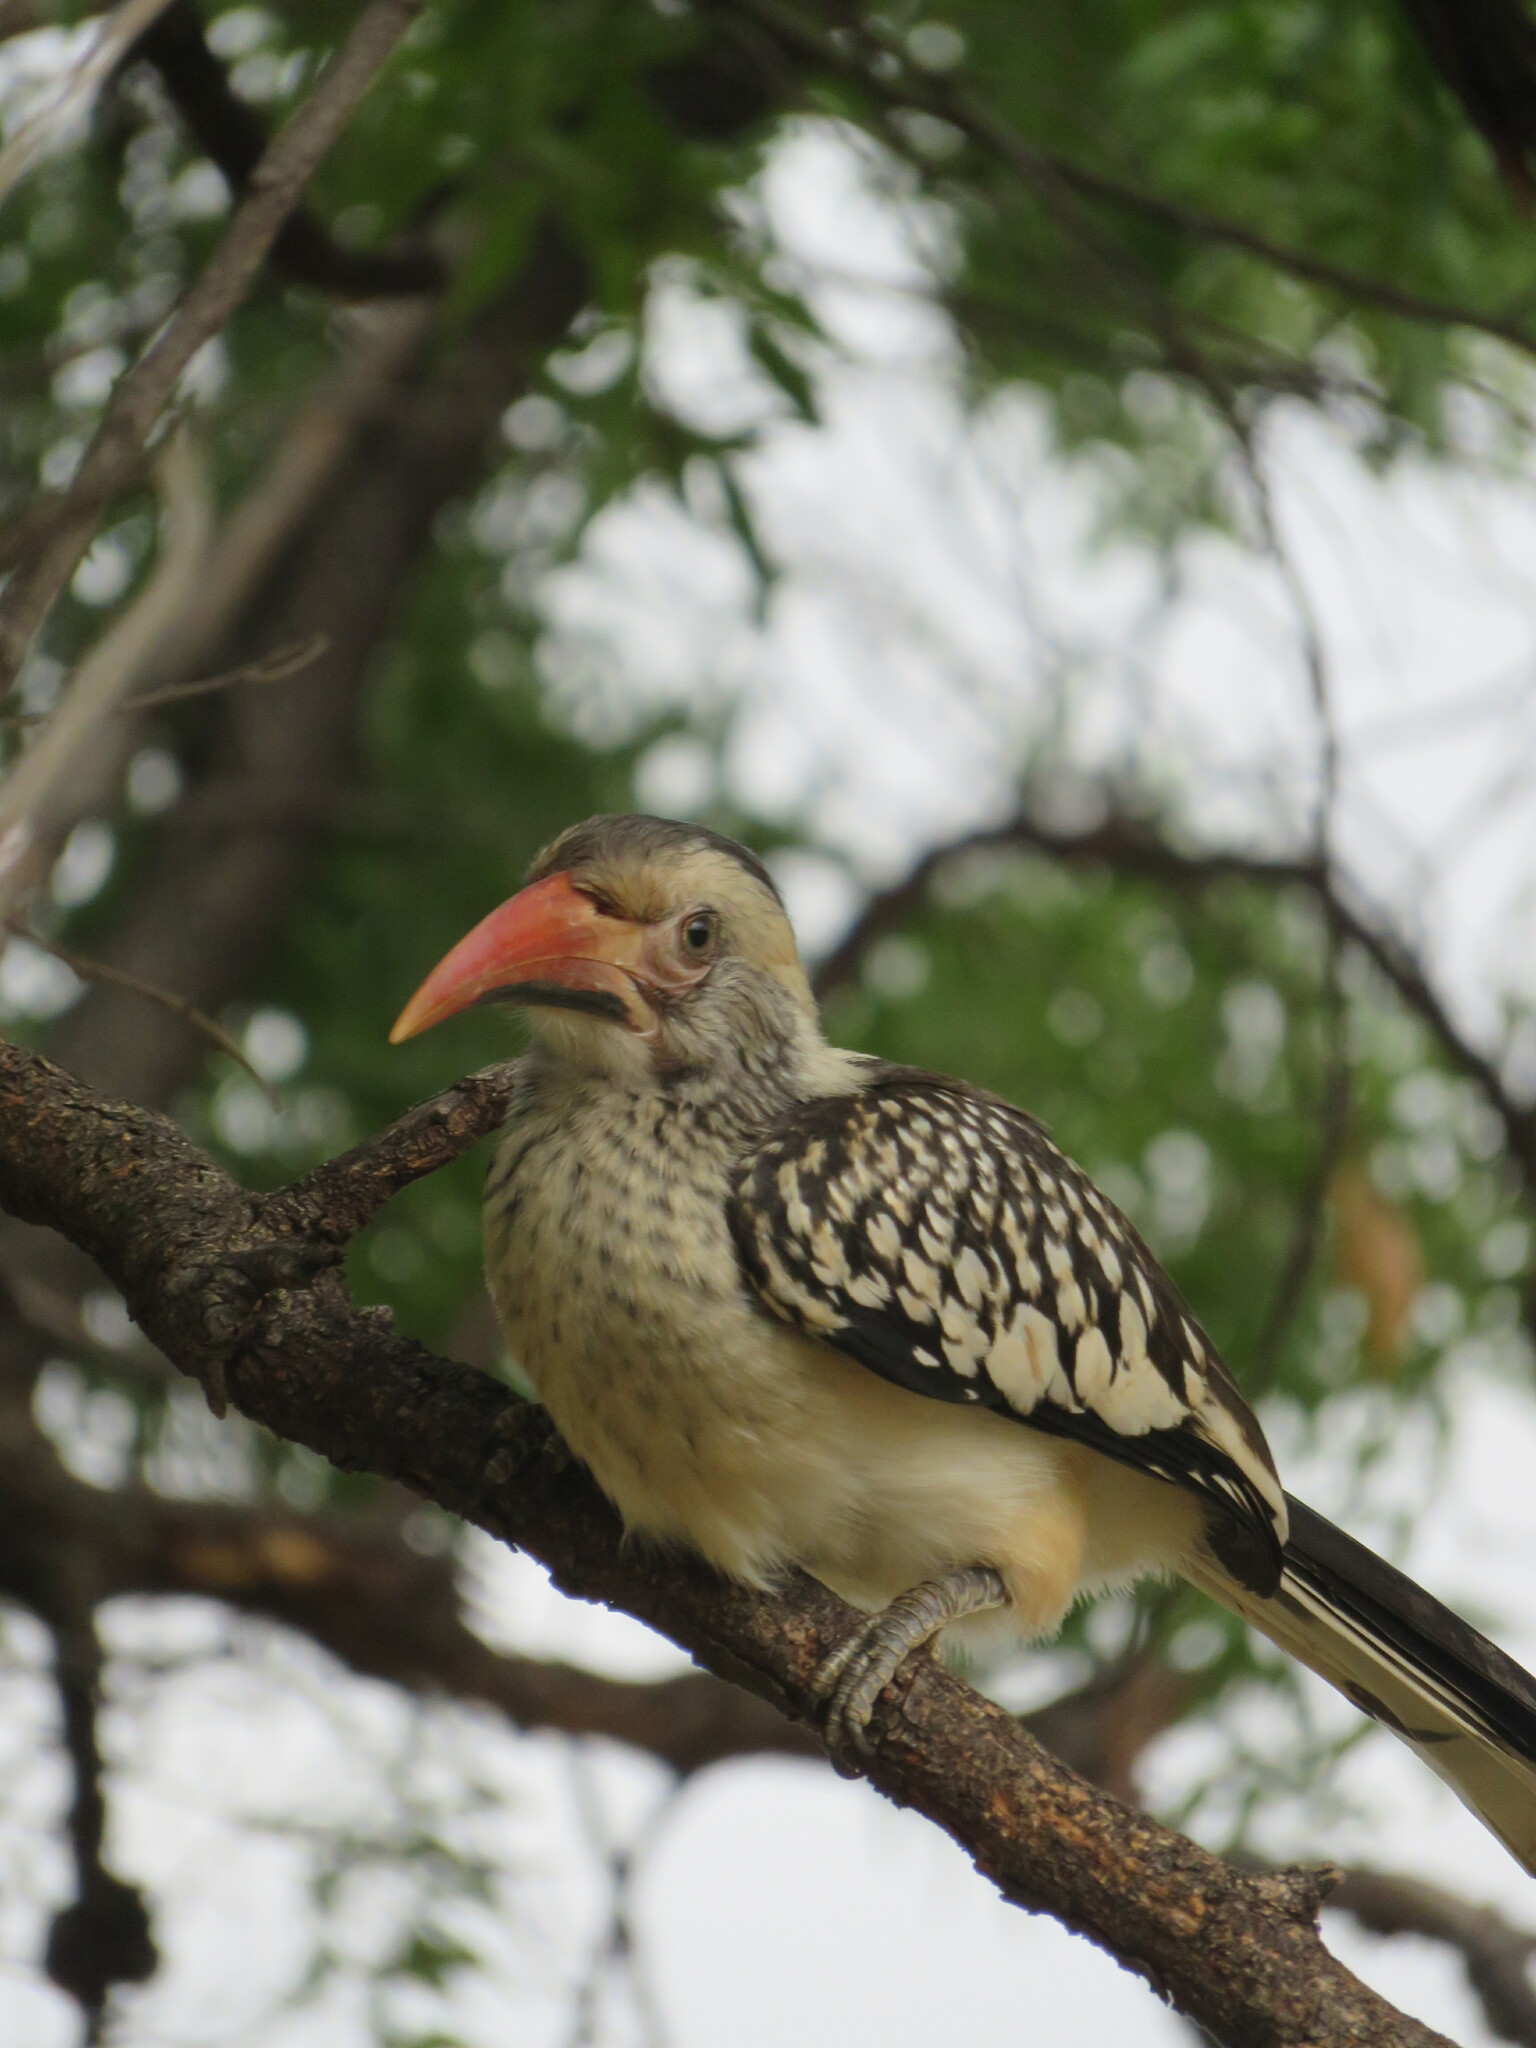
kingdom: Animalia
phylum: Chordata
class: Aves
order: Bucerotiformes
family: Bucerotidae
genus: Tockus
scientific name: Tockus rufirostris
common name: Southern red-billed hornbill
